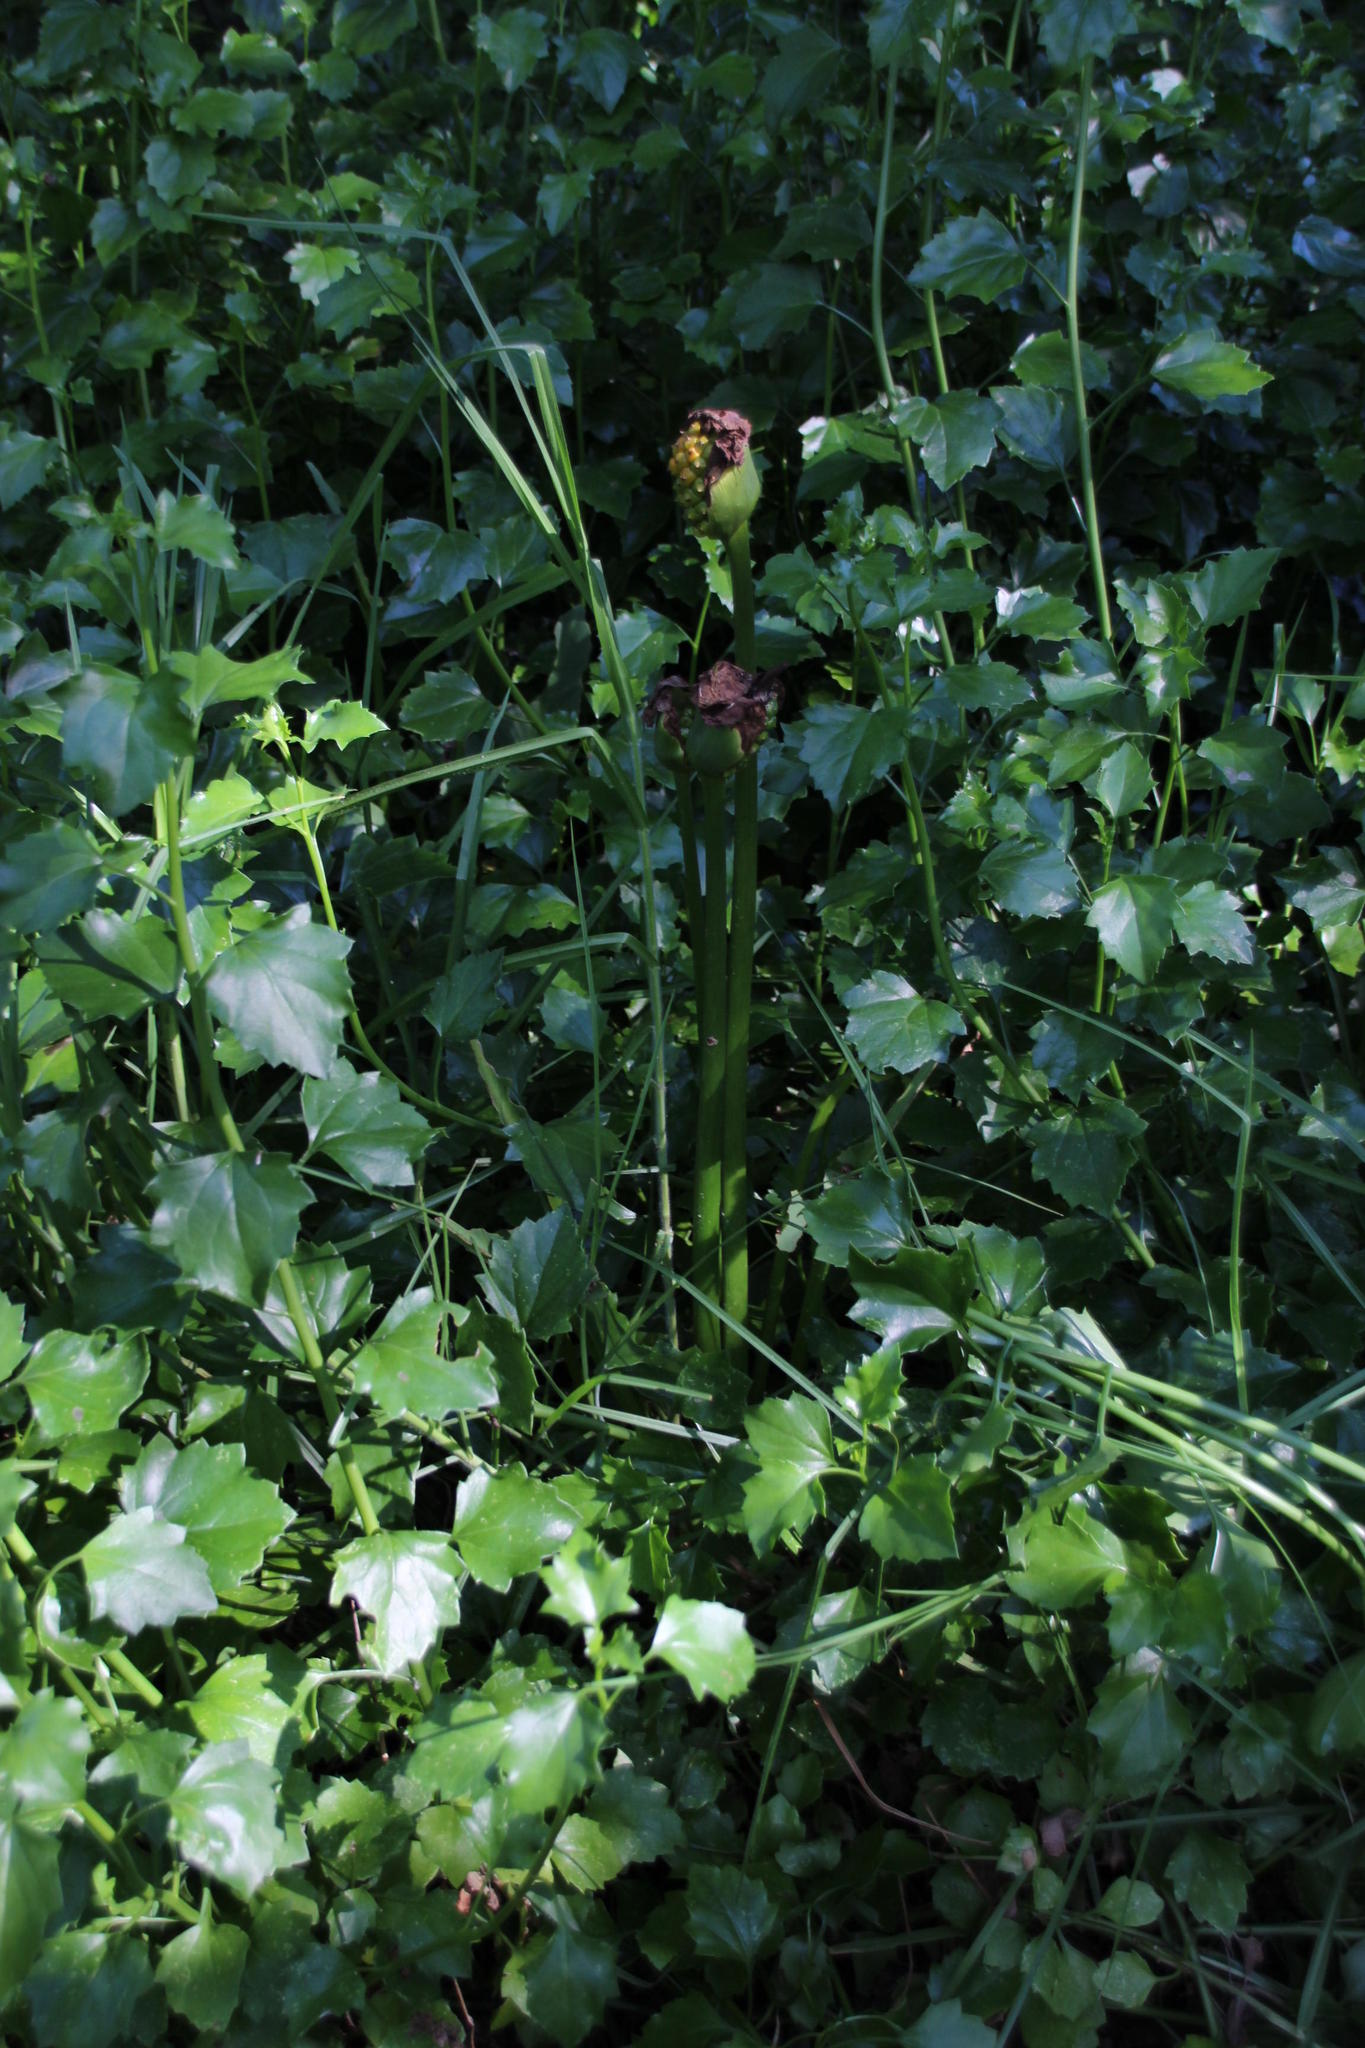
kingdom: Plantae
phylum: Tracheophyta
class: Liliopsida
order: Alismatales
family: Araceae
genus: Zantedeschia
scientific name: Zantedeschia aethiopica
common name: Altar-lily
